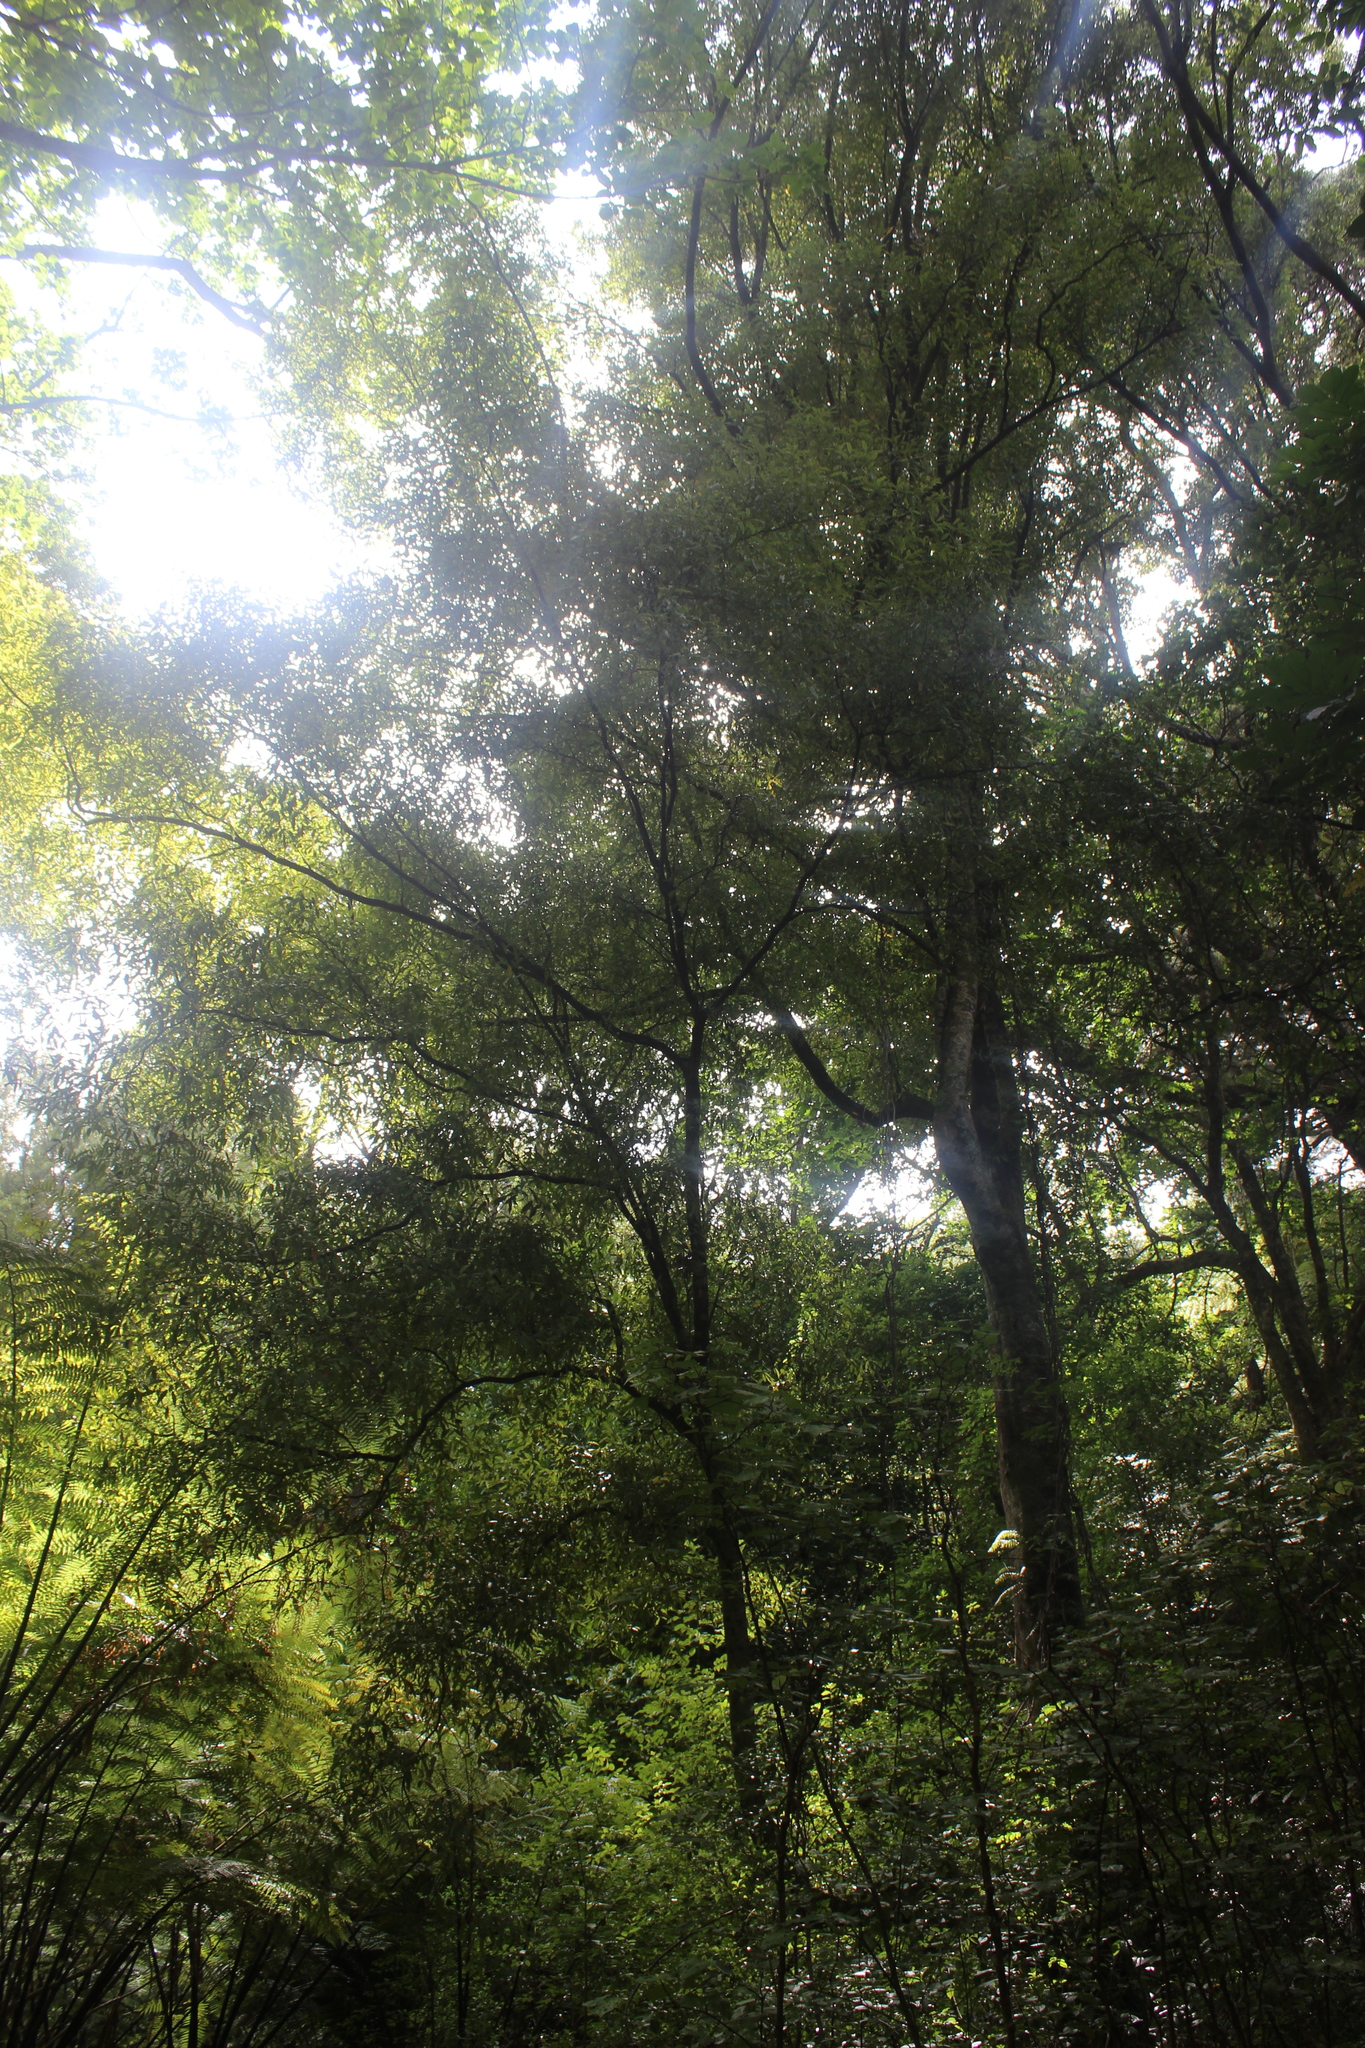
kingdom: Plantae
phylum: Tracheophyta
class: Magnoliopsida
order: Laurales
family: Lauraceae
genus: Beilschmiedia
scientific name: Beilschmiedia tawa
